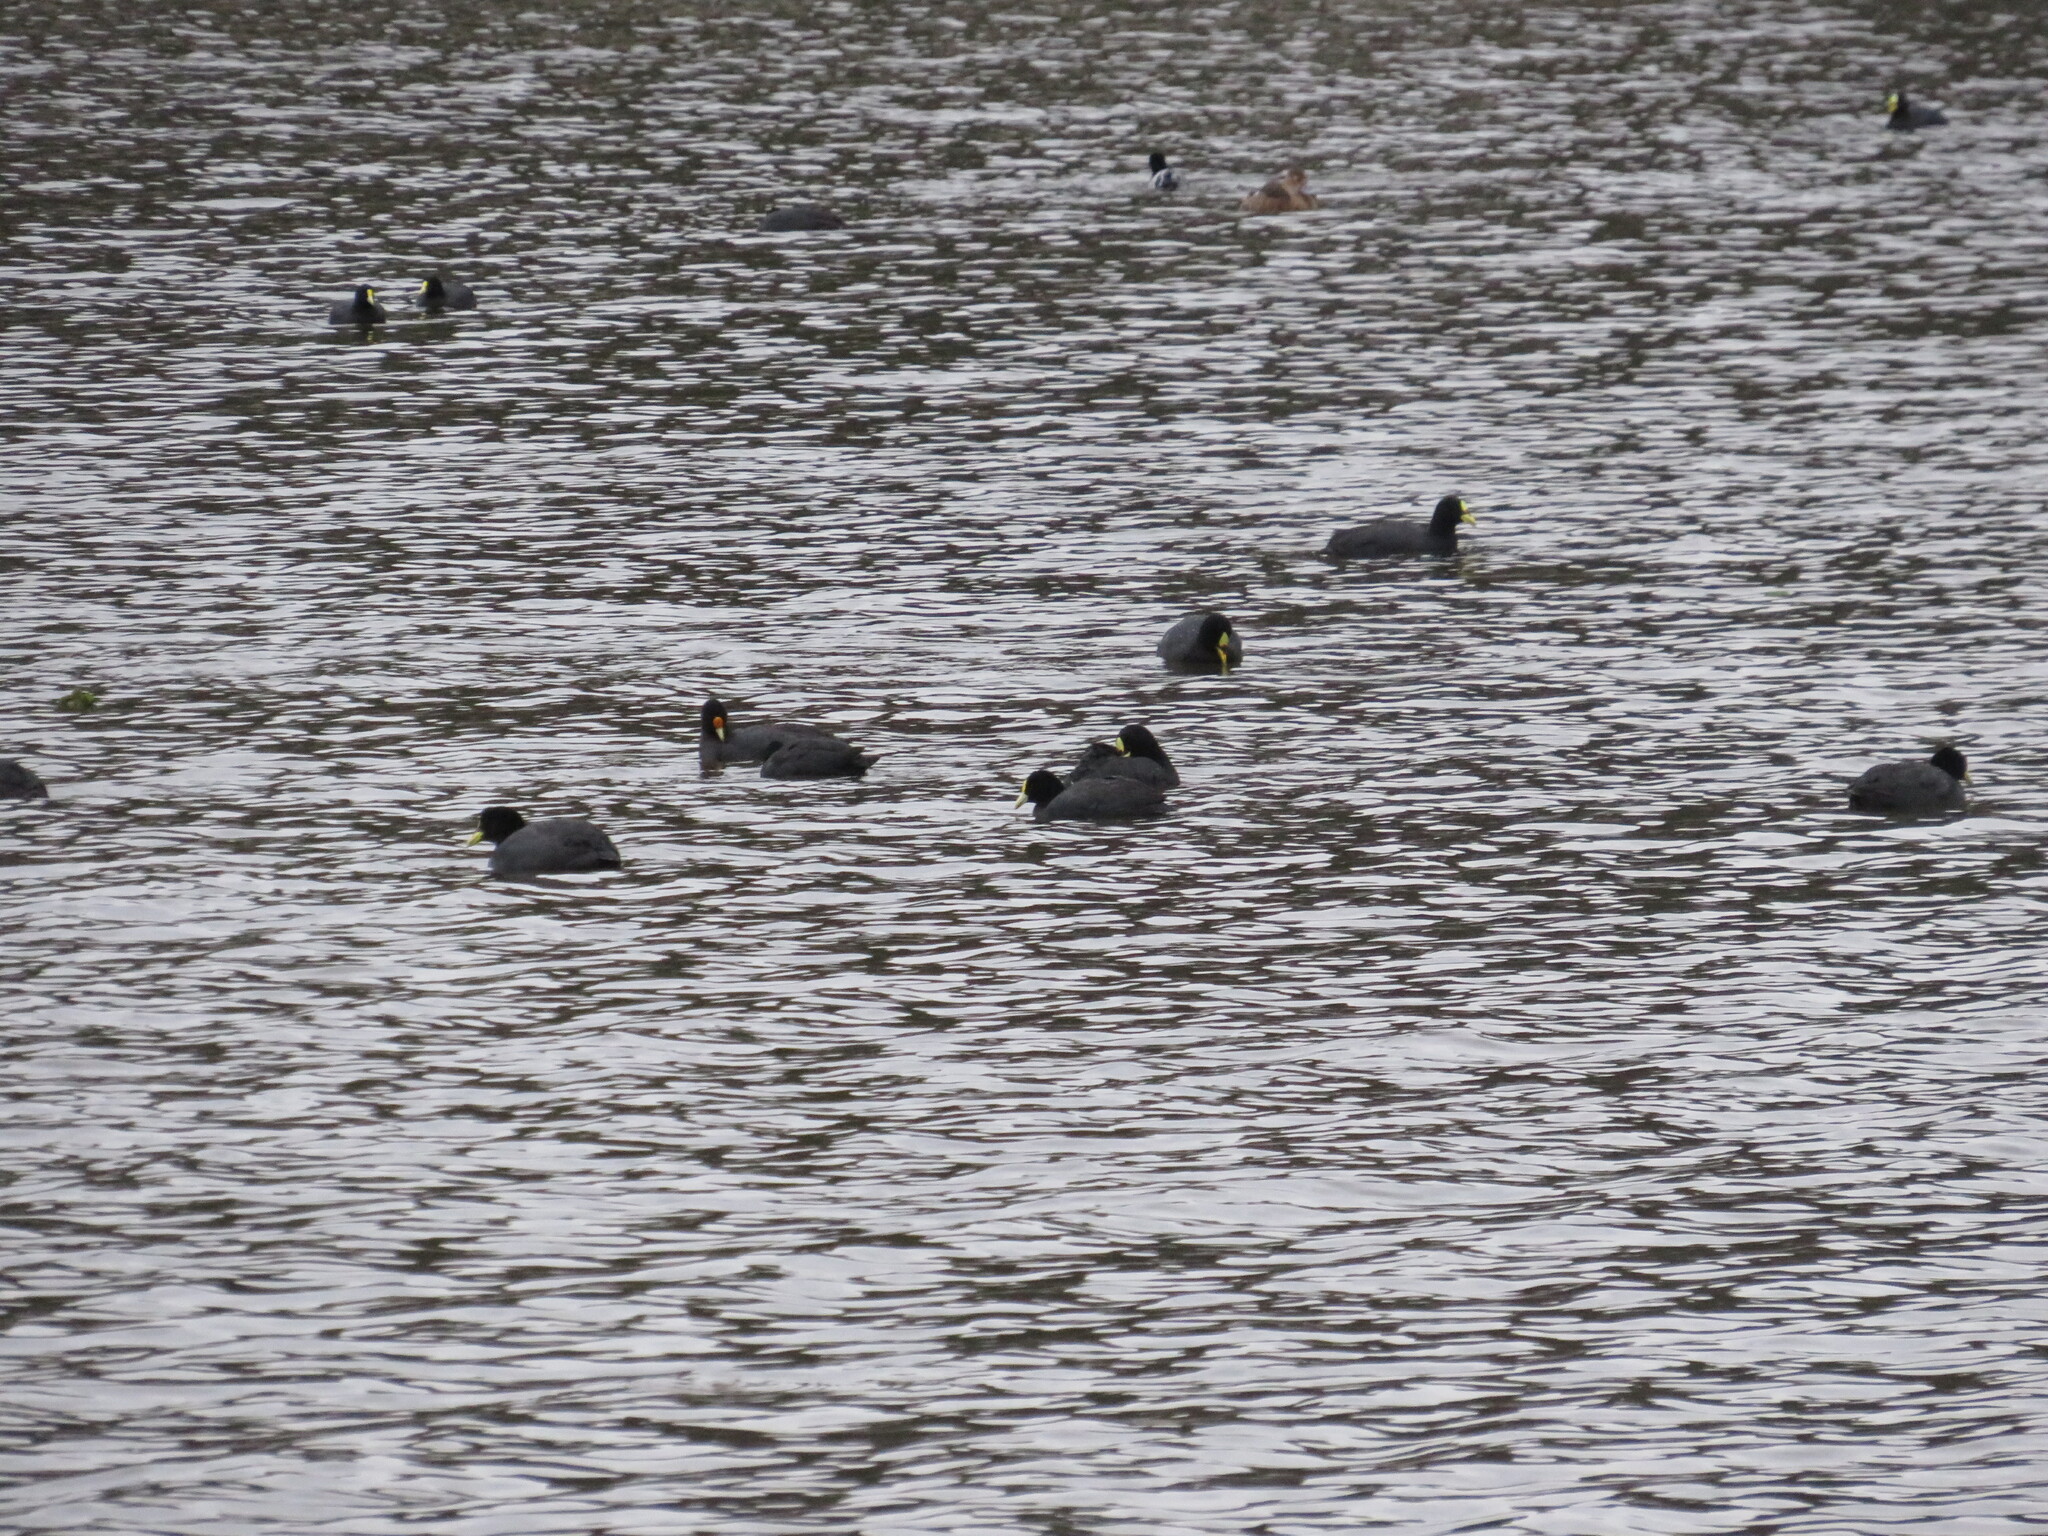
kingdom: Animalia
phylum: Chordata
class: Aves
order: Gruiformes
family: Rallidae
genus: Fulica
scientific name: Fulica leucoptera
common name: White-winged coot
